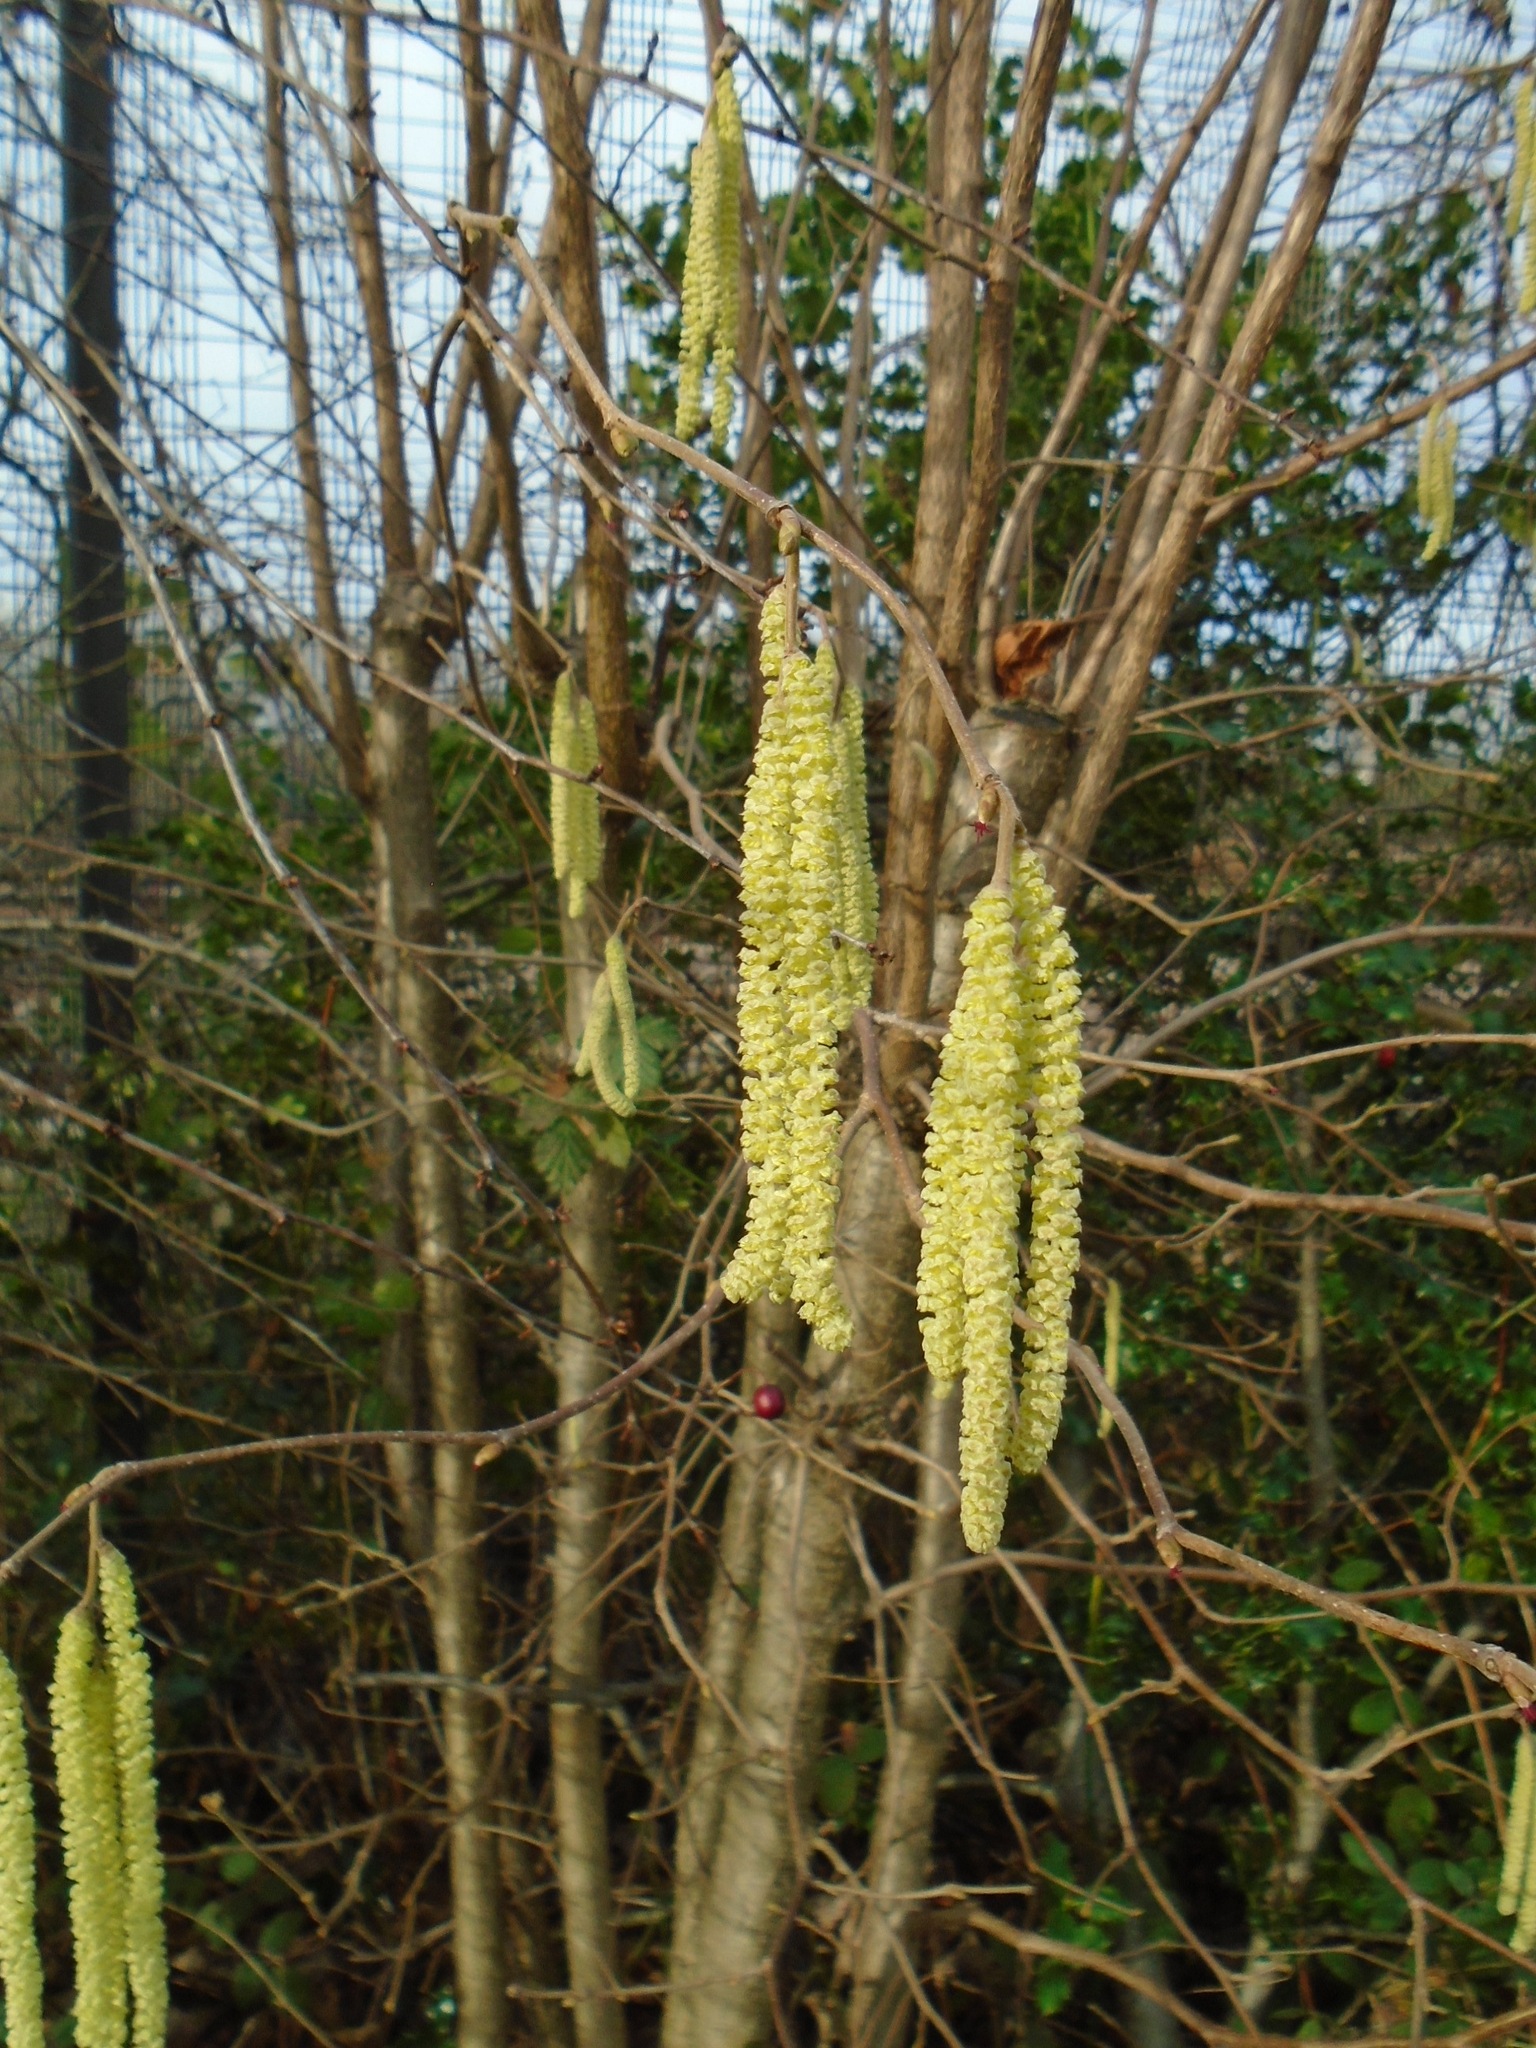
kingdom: Plantae
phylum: Tracheophyta
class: Magnoliopsida
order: Fagales
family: Betulaceae
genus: Corylus
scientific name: Corylus avellana
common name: European hazel
